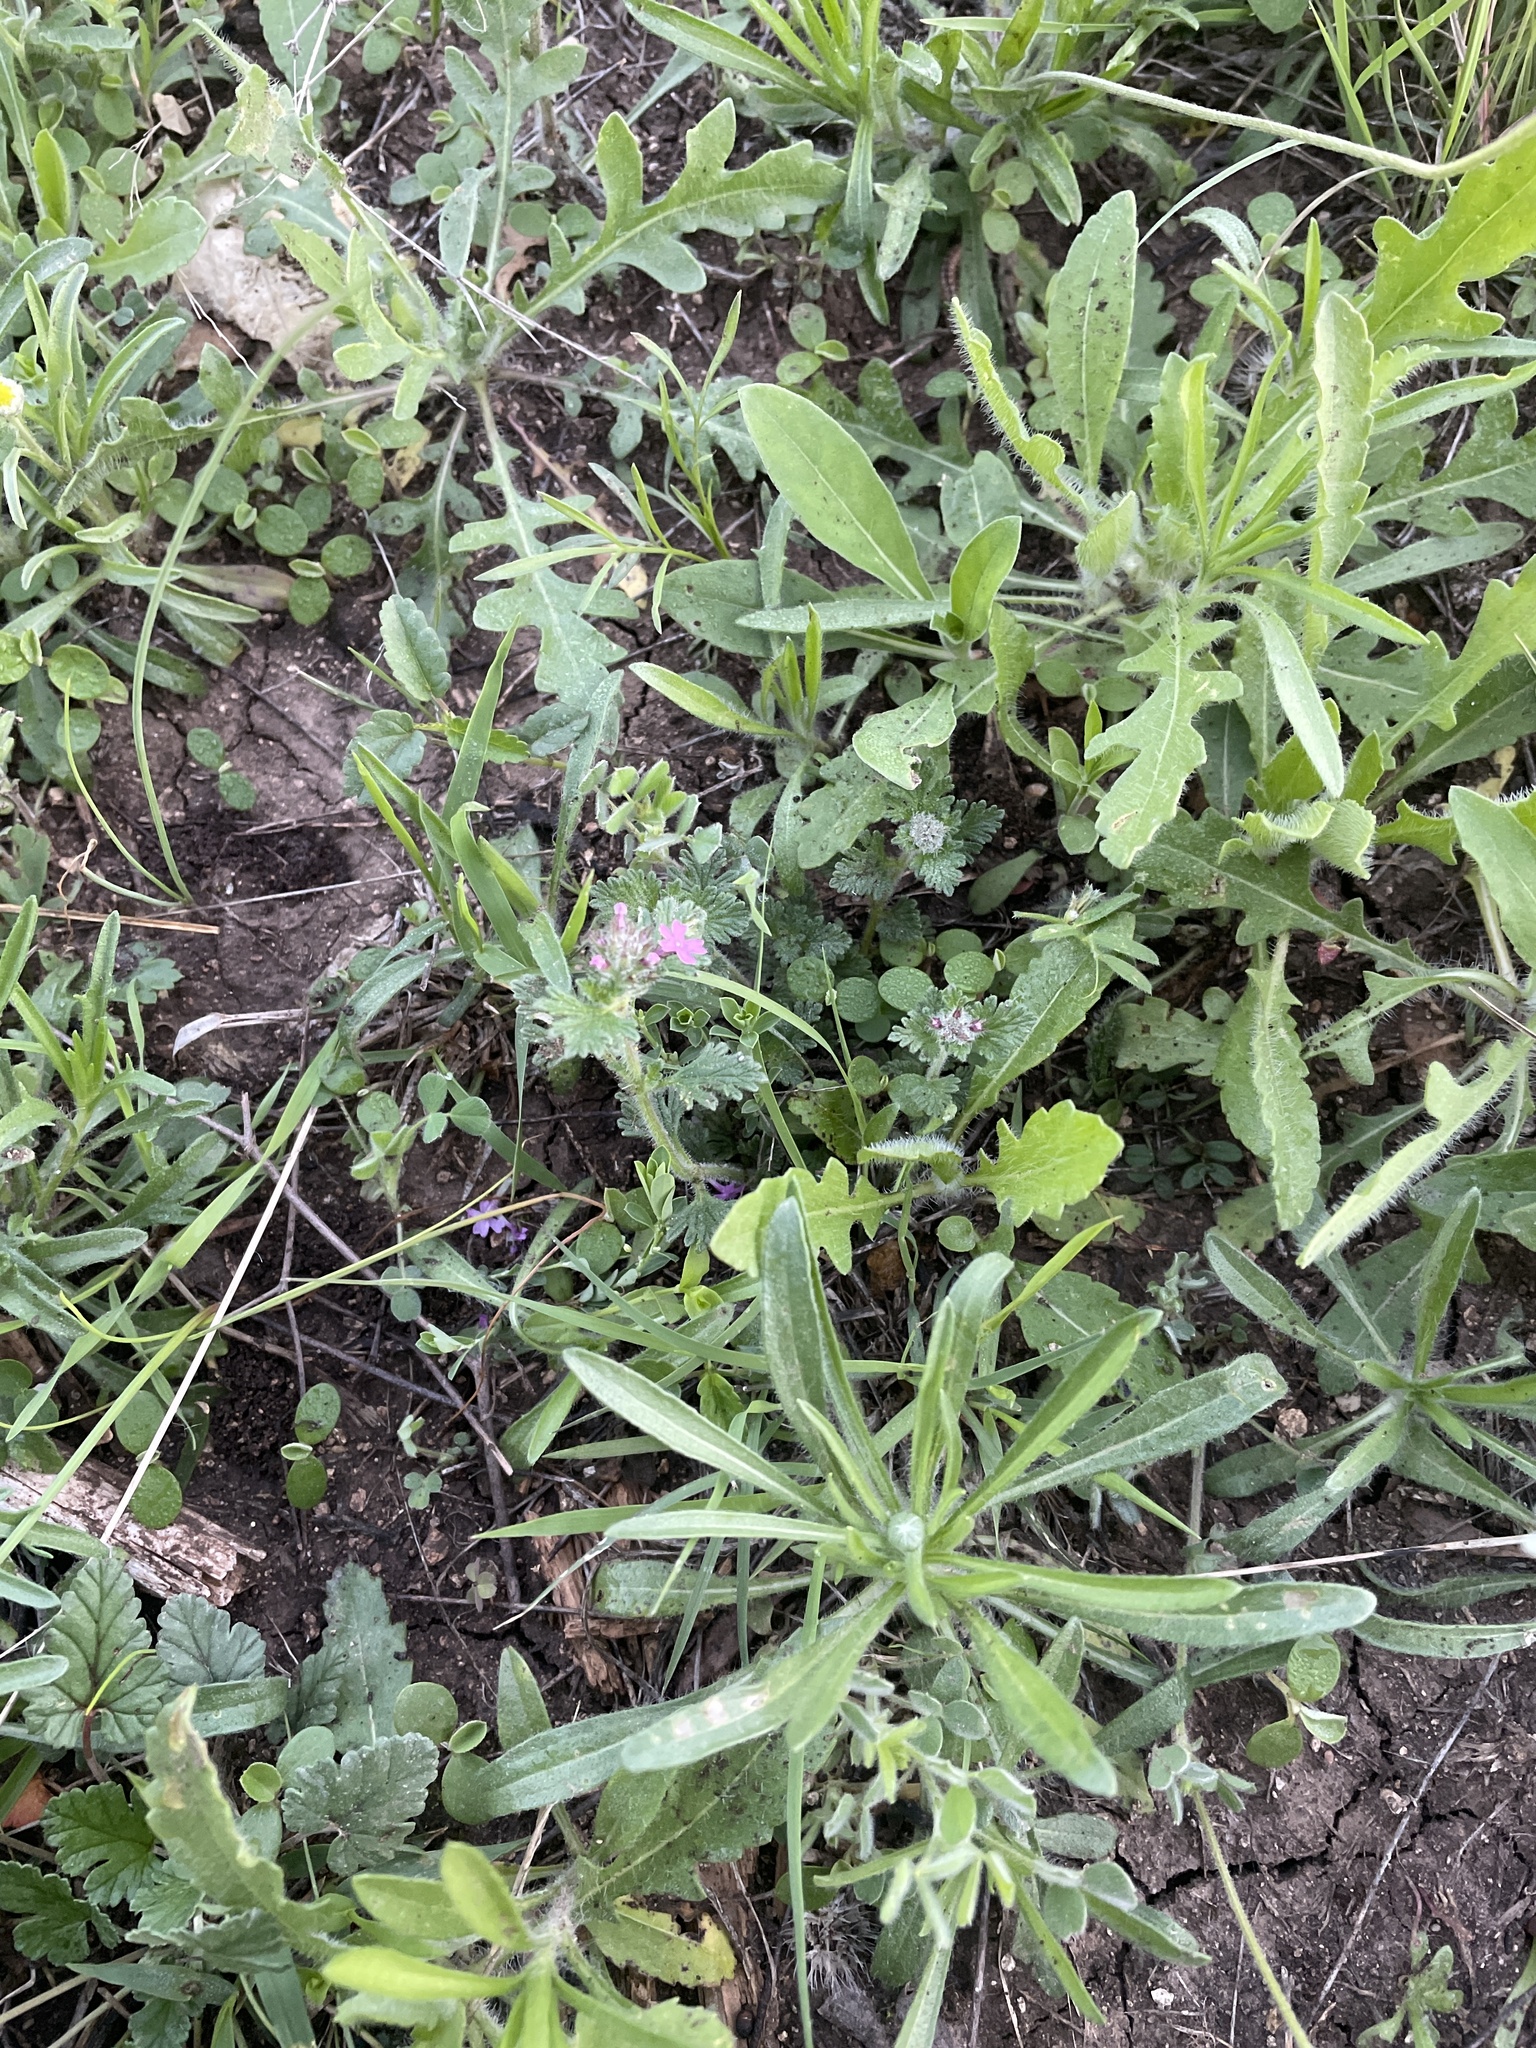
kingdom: Plantae
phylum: Tracheophyta
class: Magnoliopsida
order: Lamiales
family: Verbenaceae
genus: Verbena
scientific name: Verbena pumila
